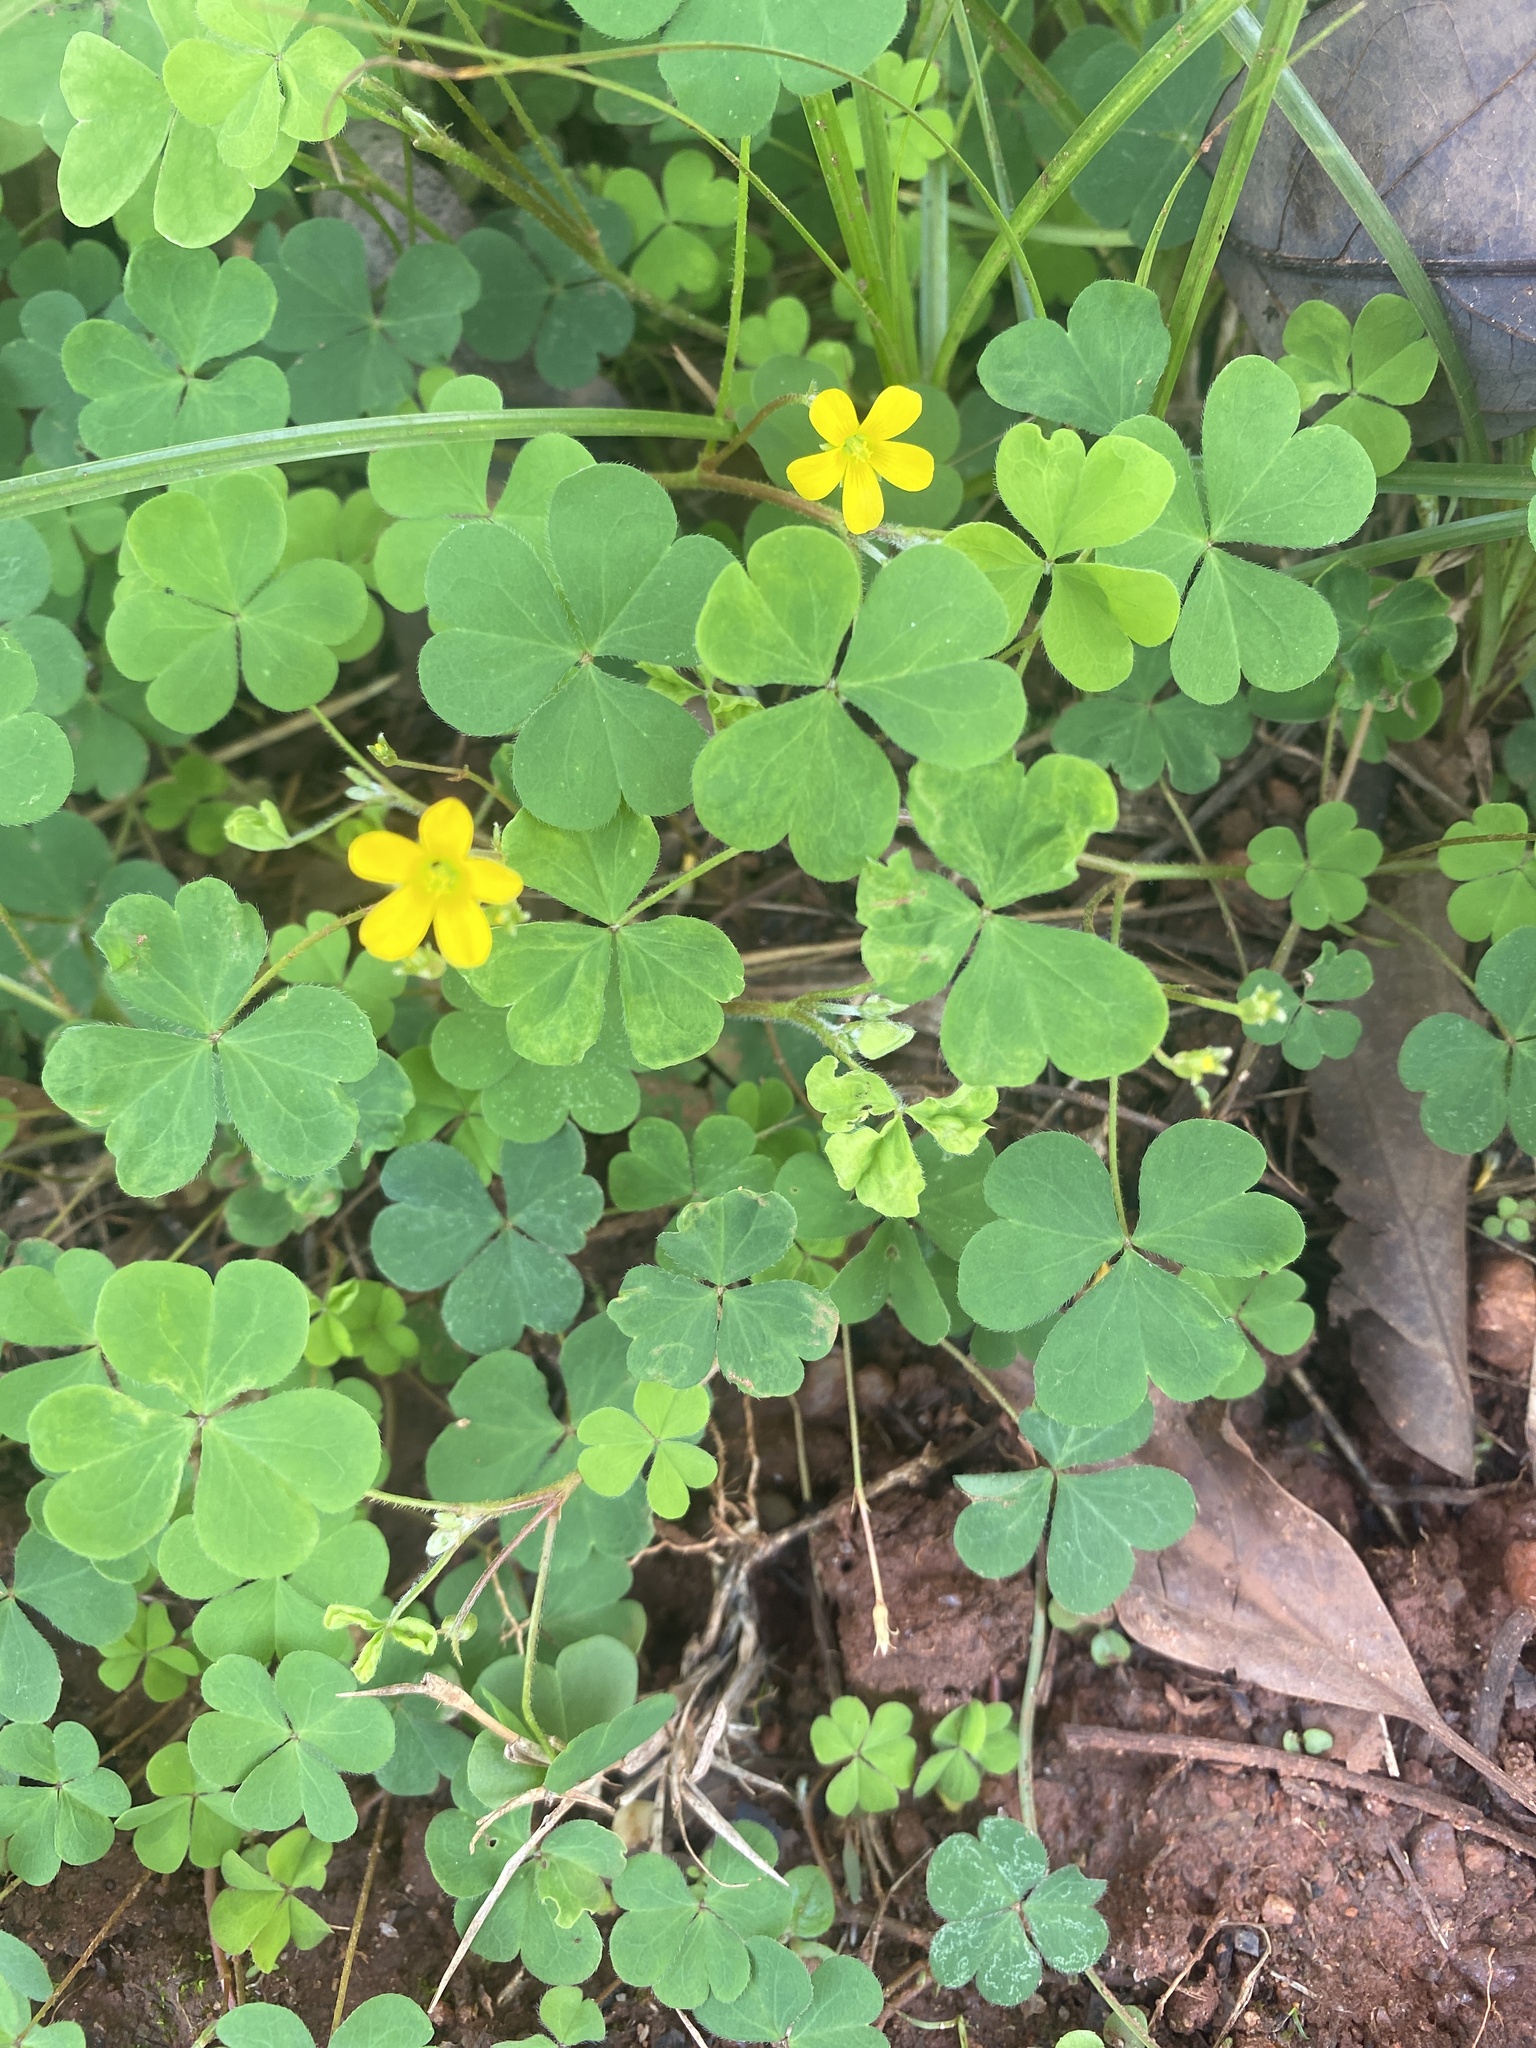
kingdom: Plantae
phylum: Tracheophyta
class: Magnoliopsida
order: Oxalidales
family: Oxalidaceae
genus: Oxalis
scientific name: Oxalis corniculata
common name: Procumbent yellow-sorrel
